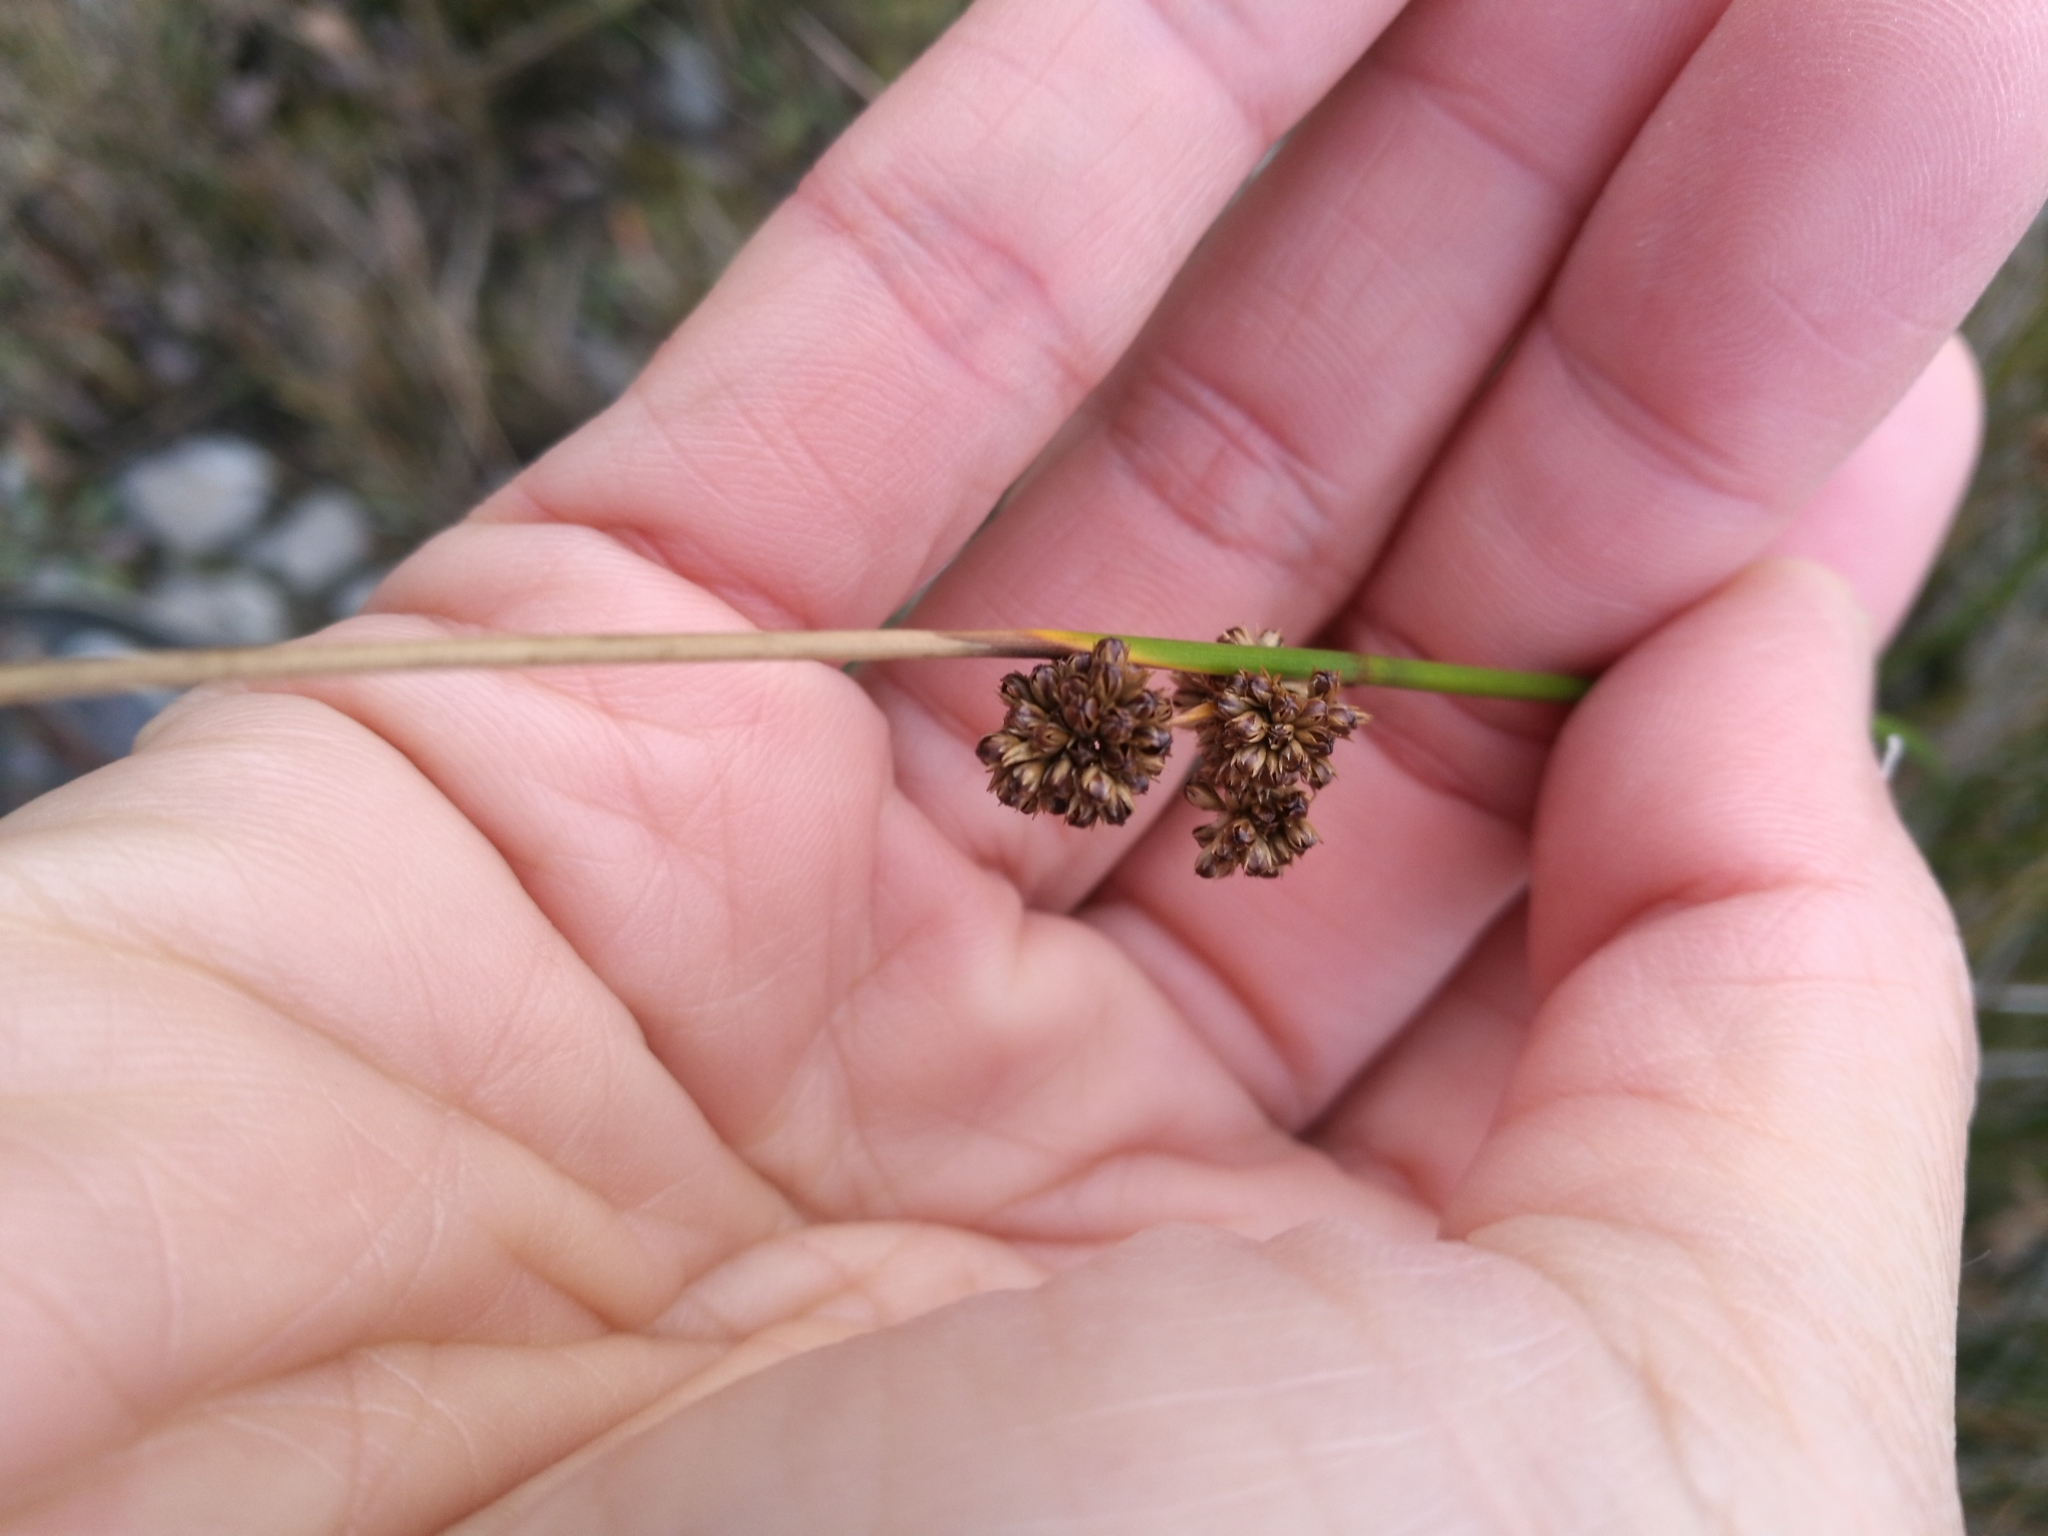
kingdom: Plantae
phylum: Tracheophyta
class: Liliopsida
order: Poales
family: Cyperaceae
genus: Ficinia
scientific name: Ficinia nodosa
